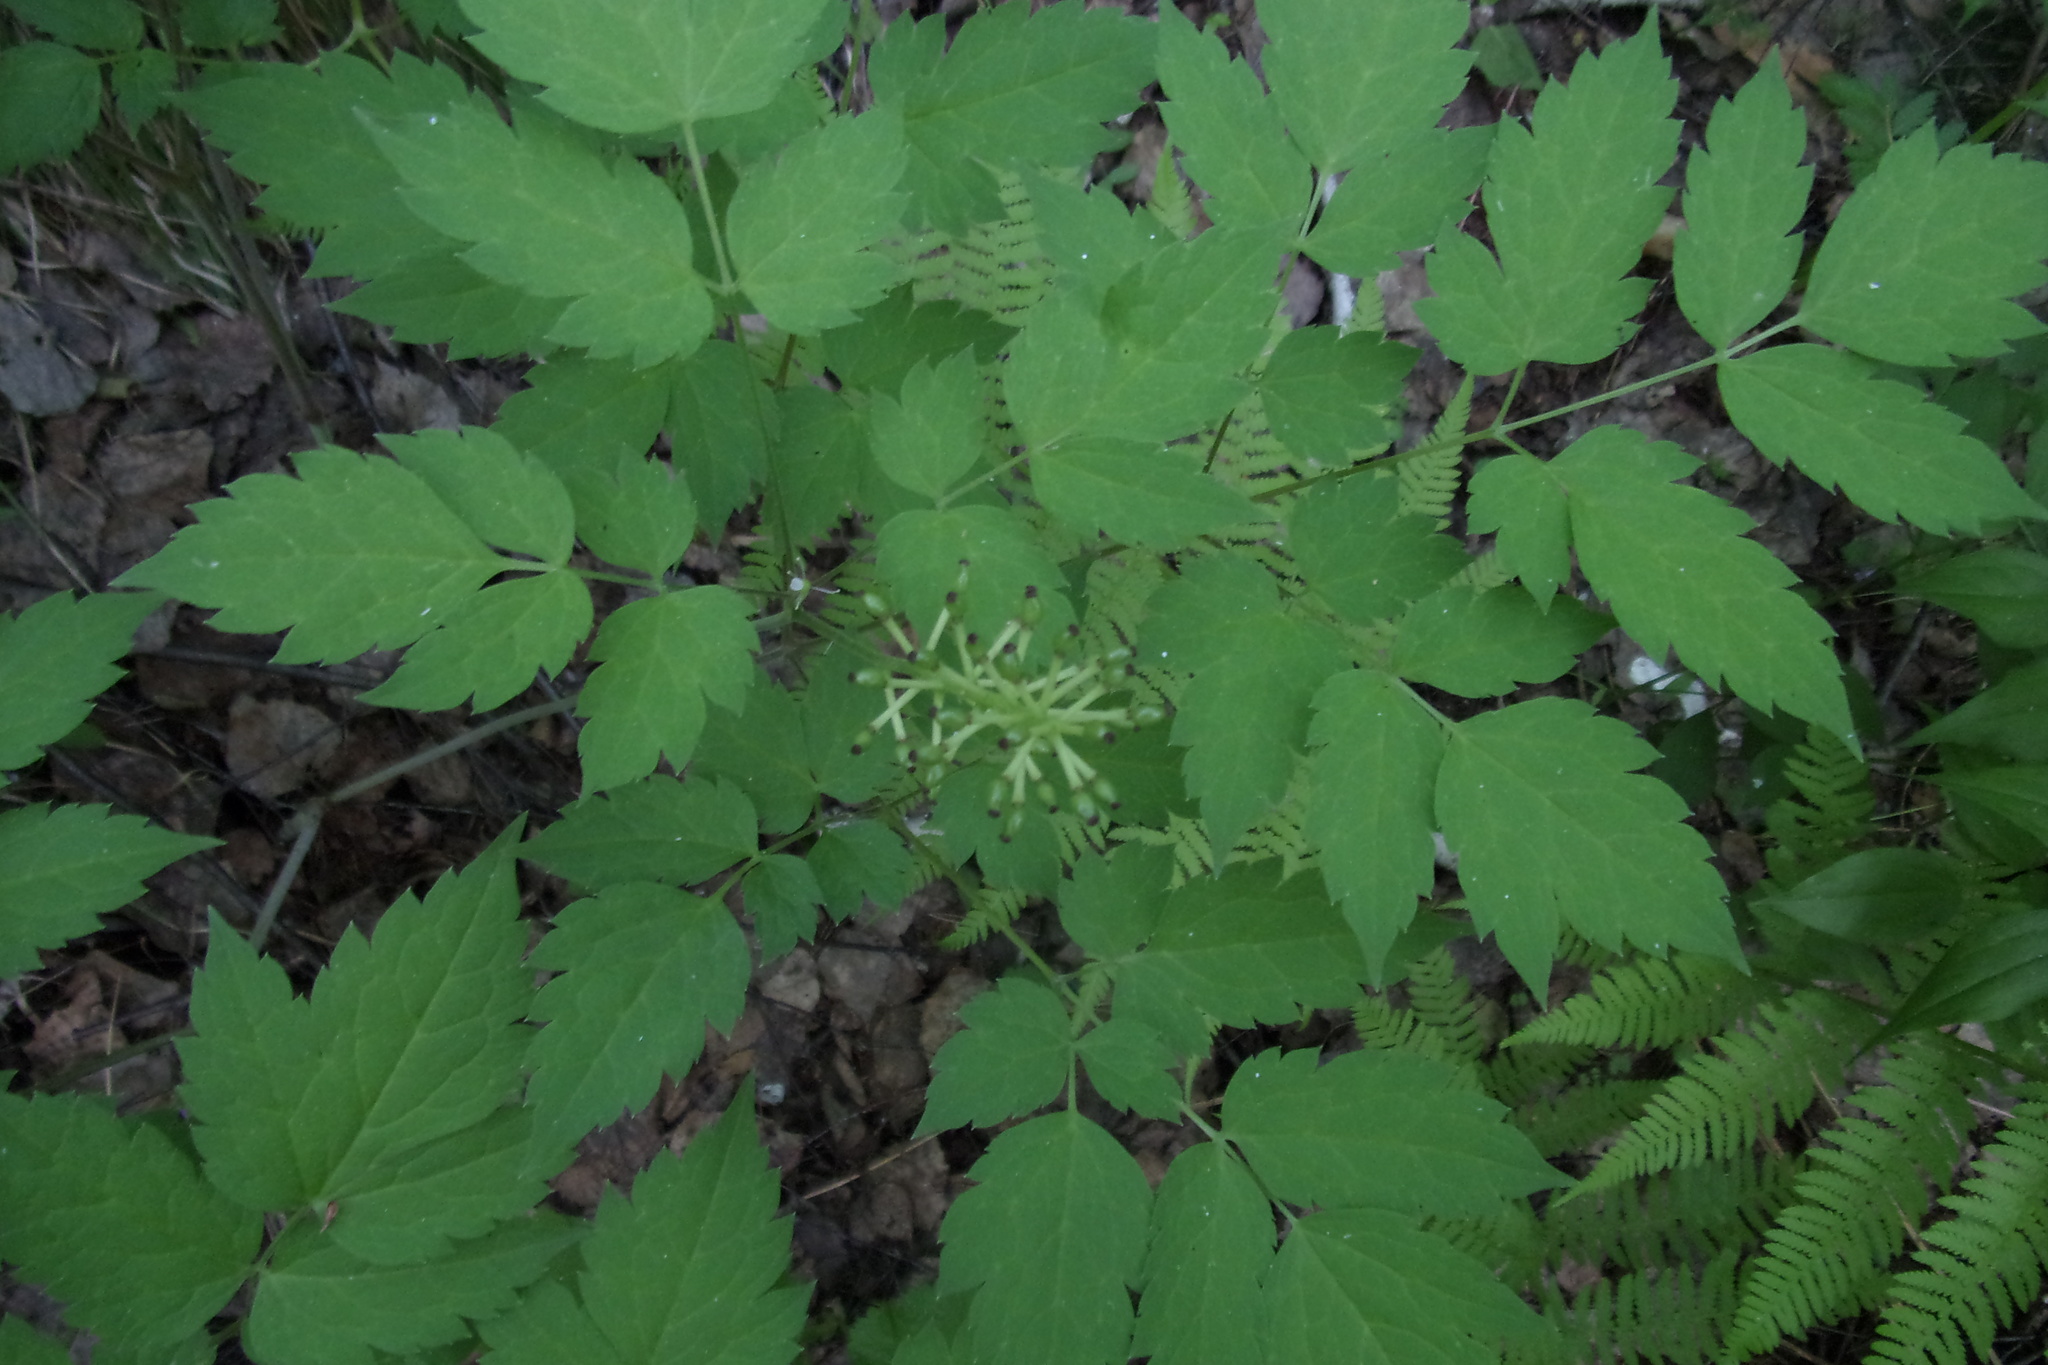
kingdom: Plantae
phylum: Tracheophyta
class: Magnoliopsida
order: Ranunculales
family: Ranunculaceae
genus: Actaea
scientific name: Actaea erythrocarpa
